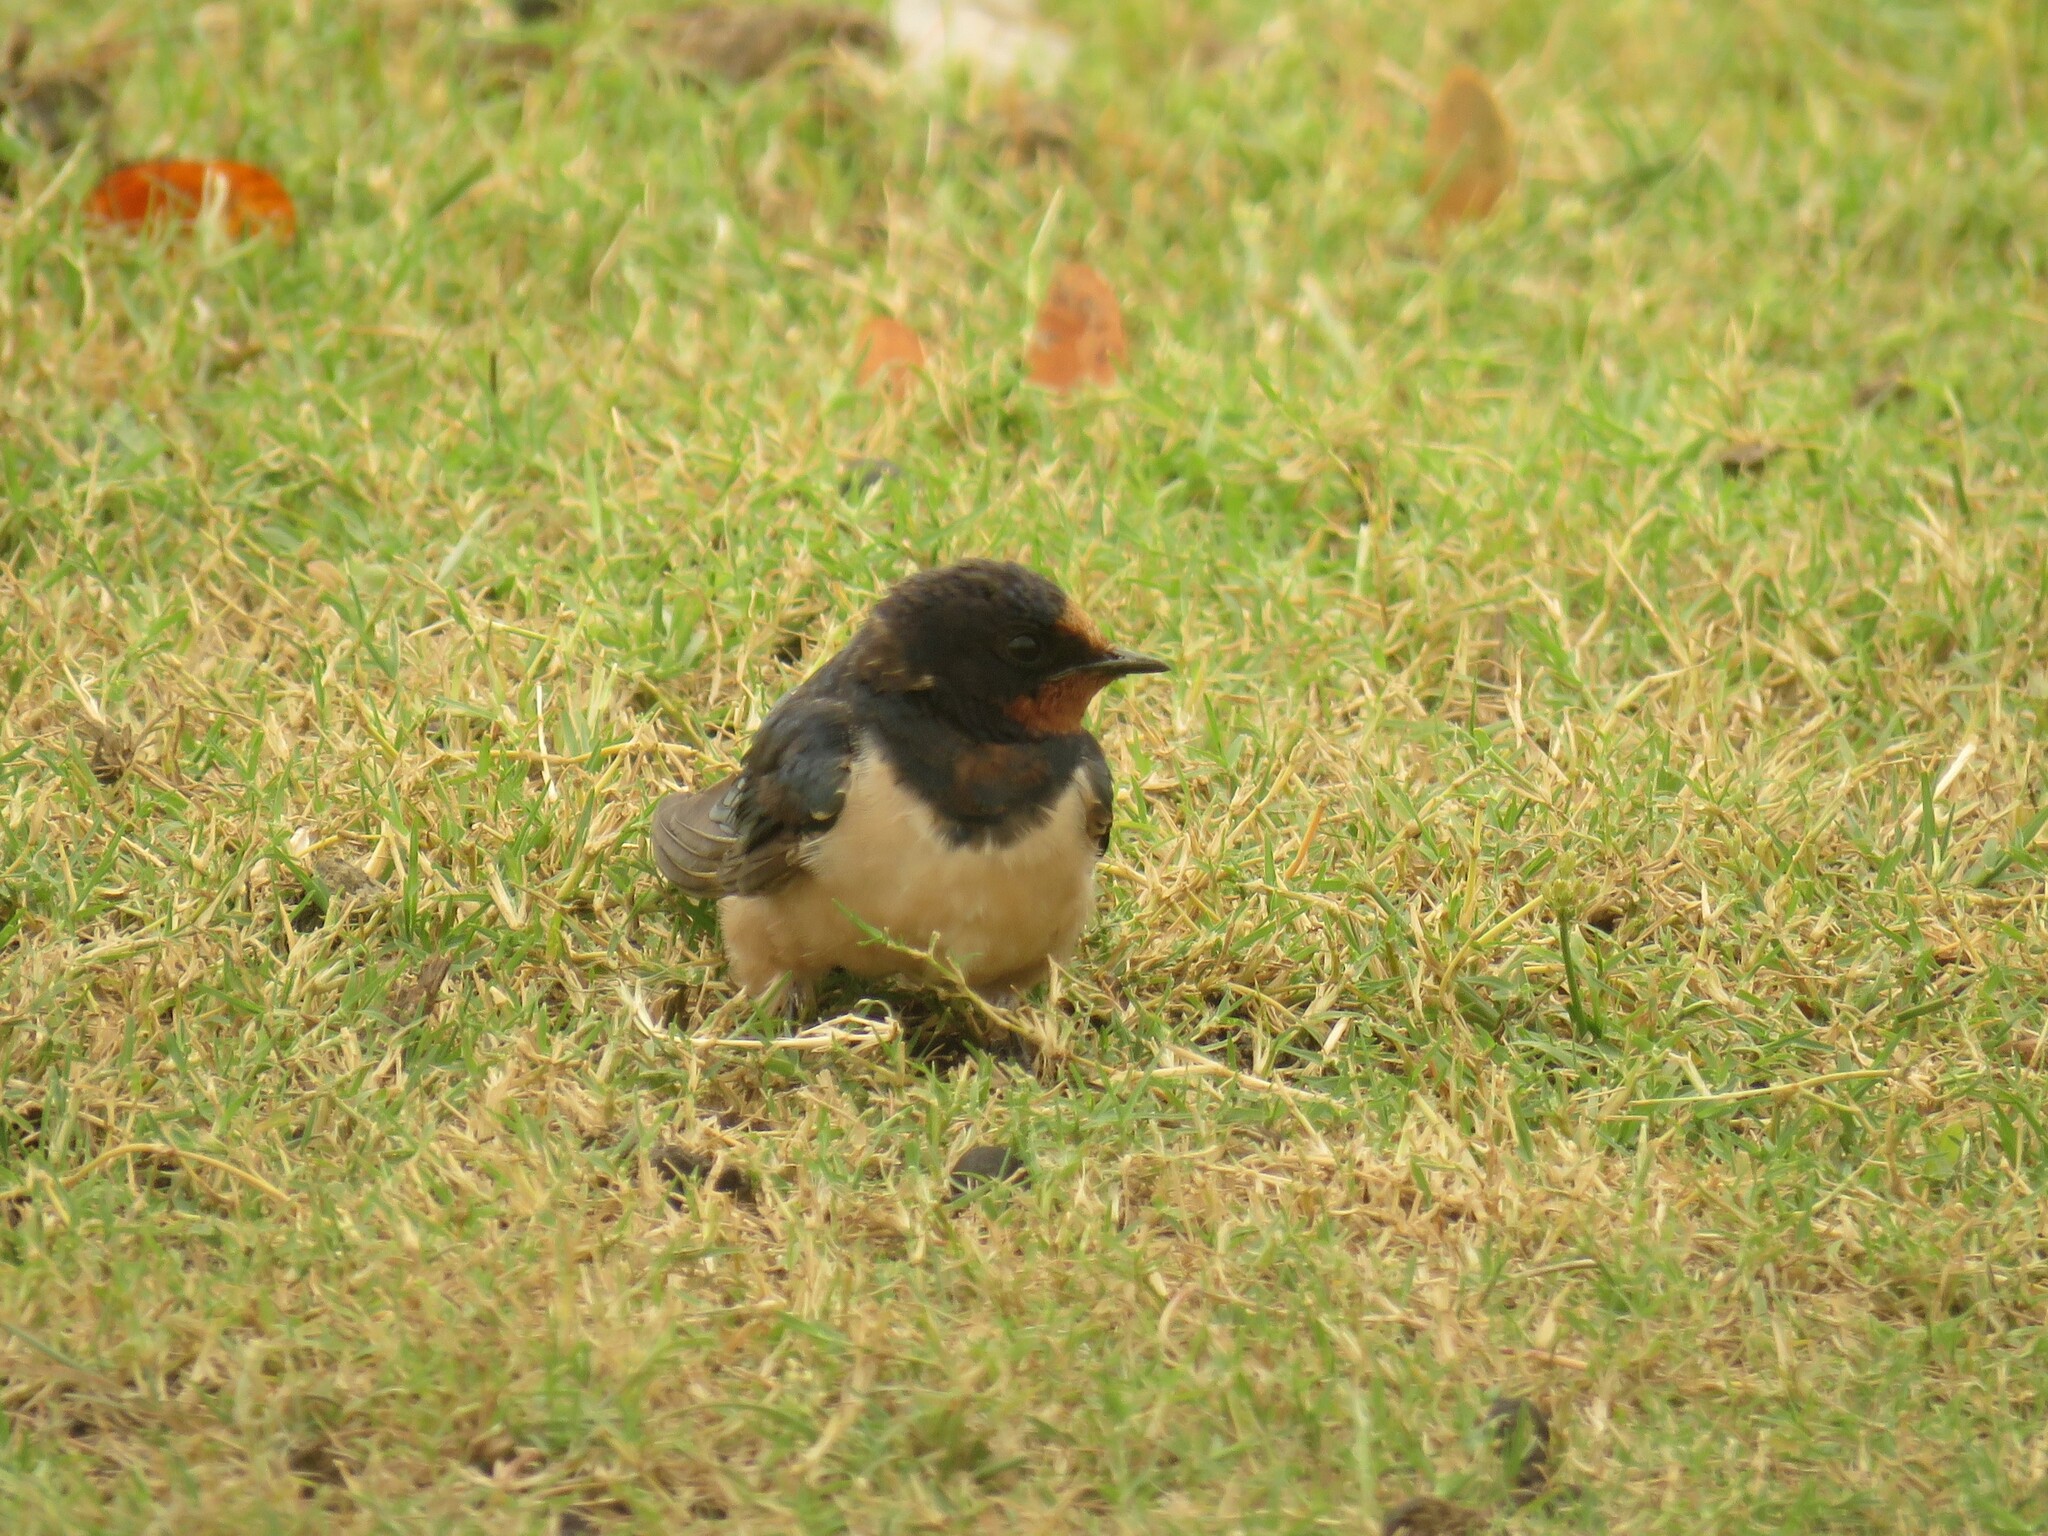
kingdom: Animalia
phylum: Chordata
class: Aves
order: Passeriformes
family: Hirundinidae
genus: Hirundo
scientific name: Hirundo rustica
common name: Barn swallow
